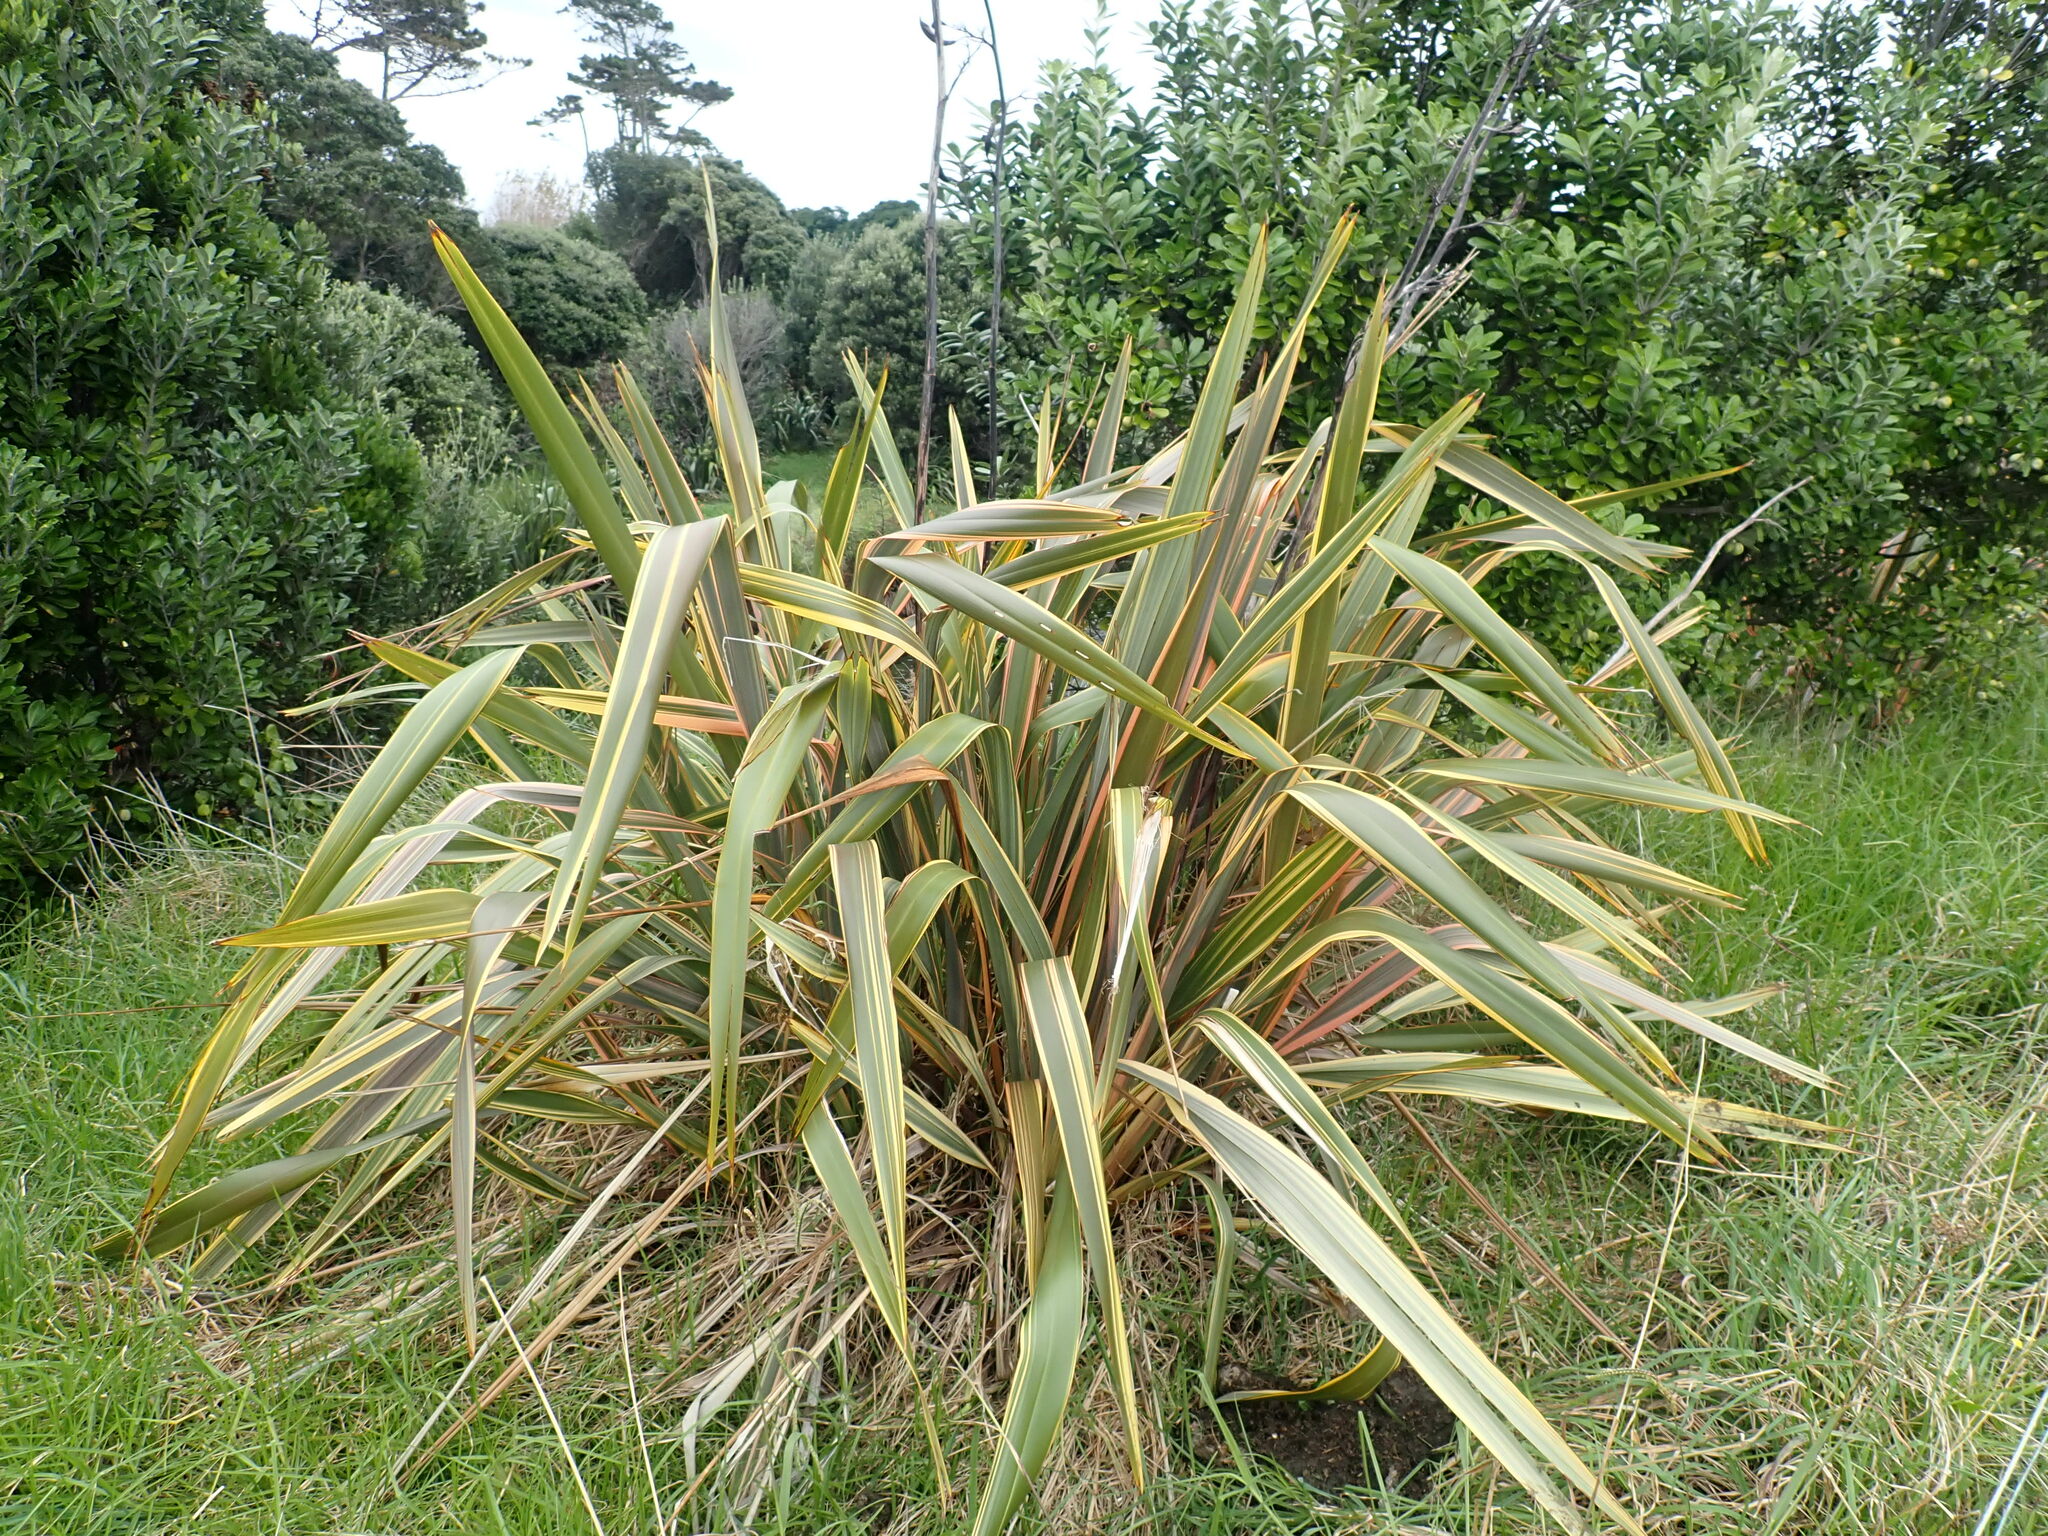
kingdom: Plantae
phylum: Tracheophyta
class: Liliopsida
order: Asparagales
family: Asphodelaceae
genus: Phormium
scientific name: Phormium tenax
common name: New zealand flax
